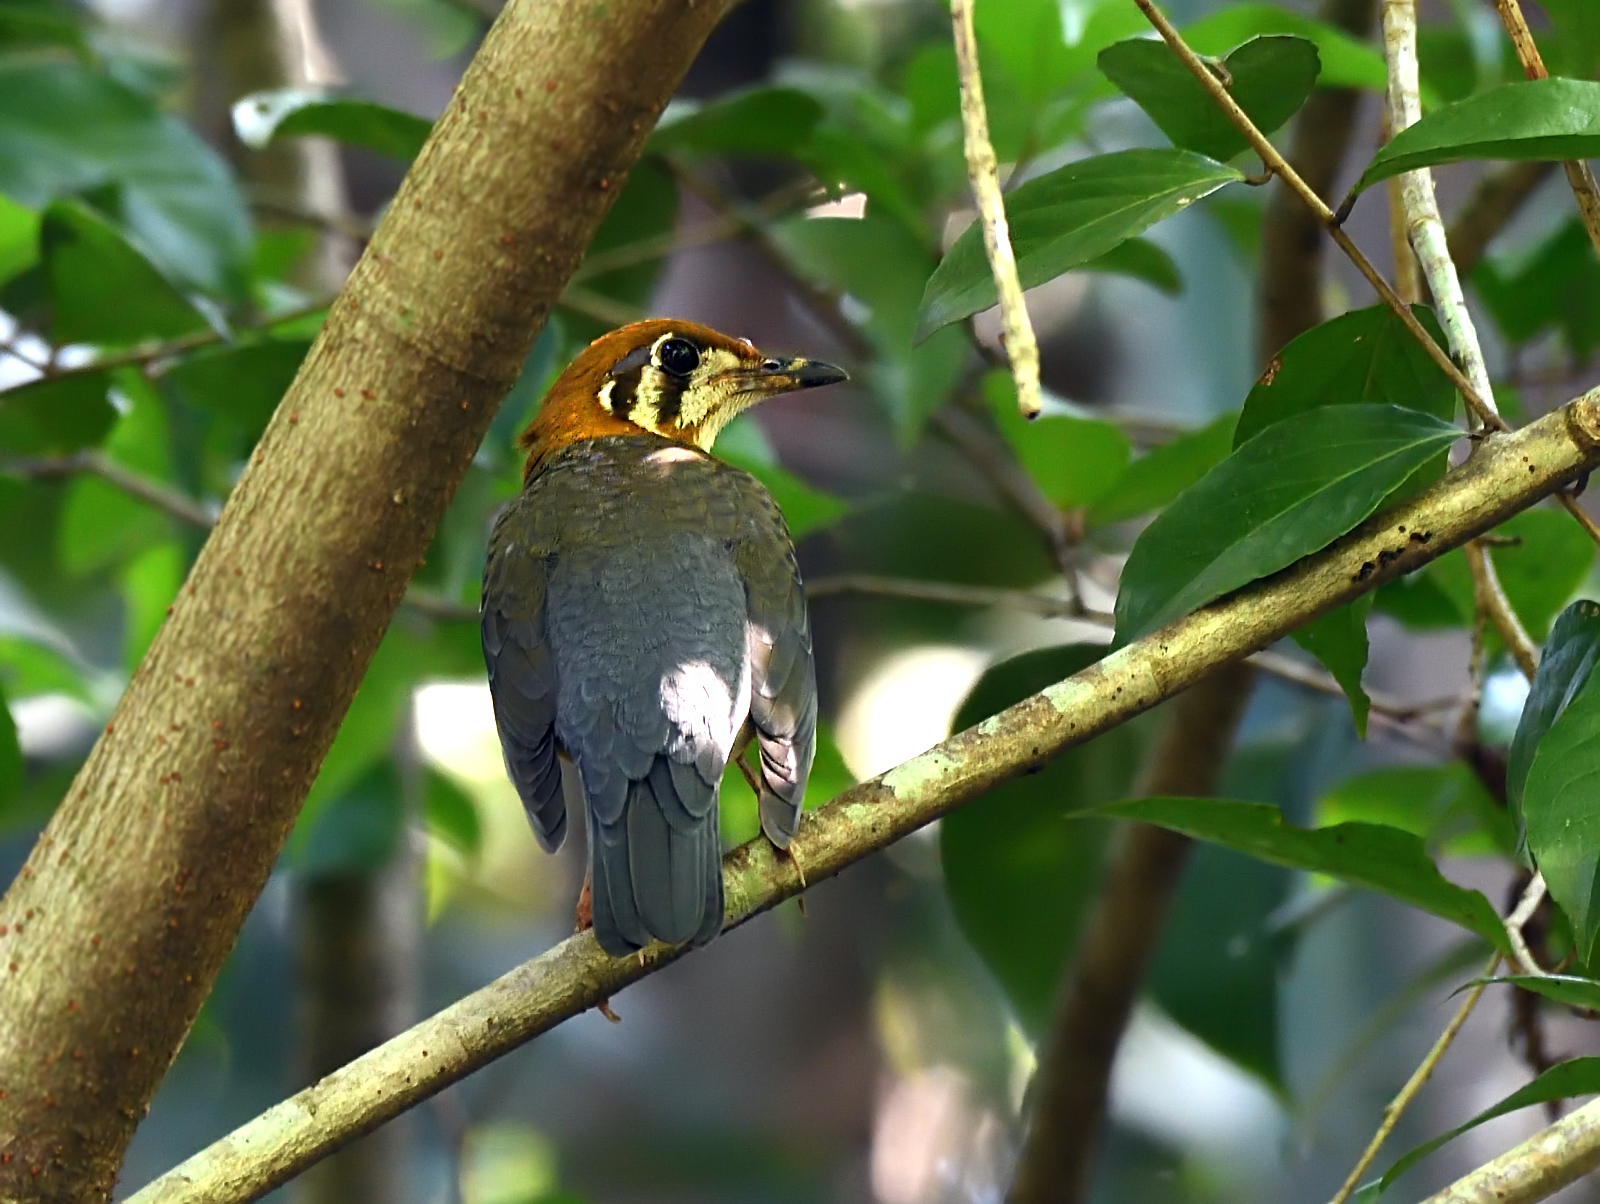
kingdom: Animalia
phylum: Chordata
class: Aves
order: Passeriformes
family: Turdidae
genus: Geokichla
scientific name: Geokichla citrina
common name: Orange-headed thrush
